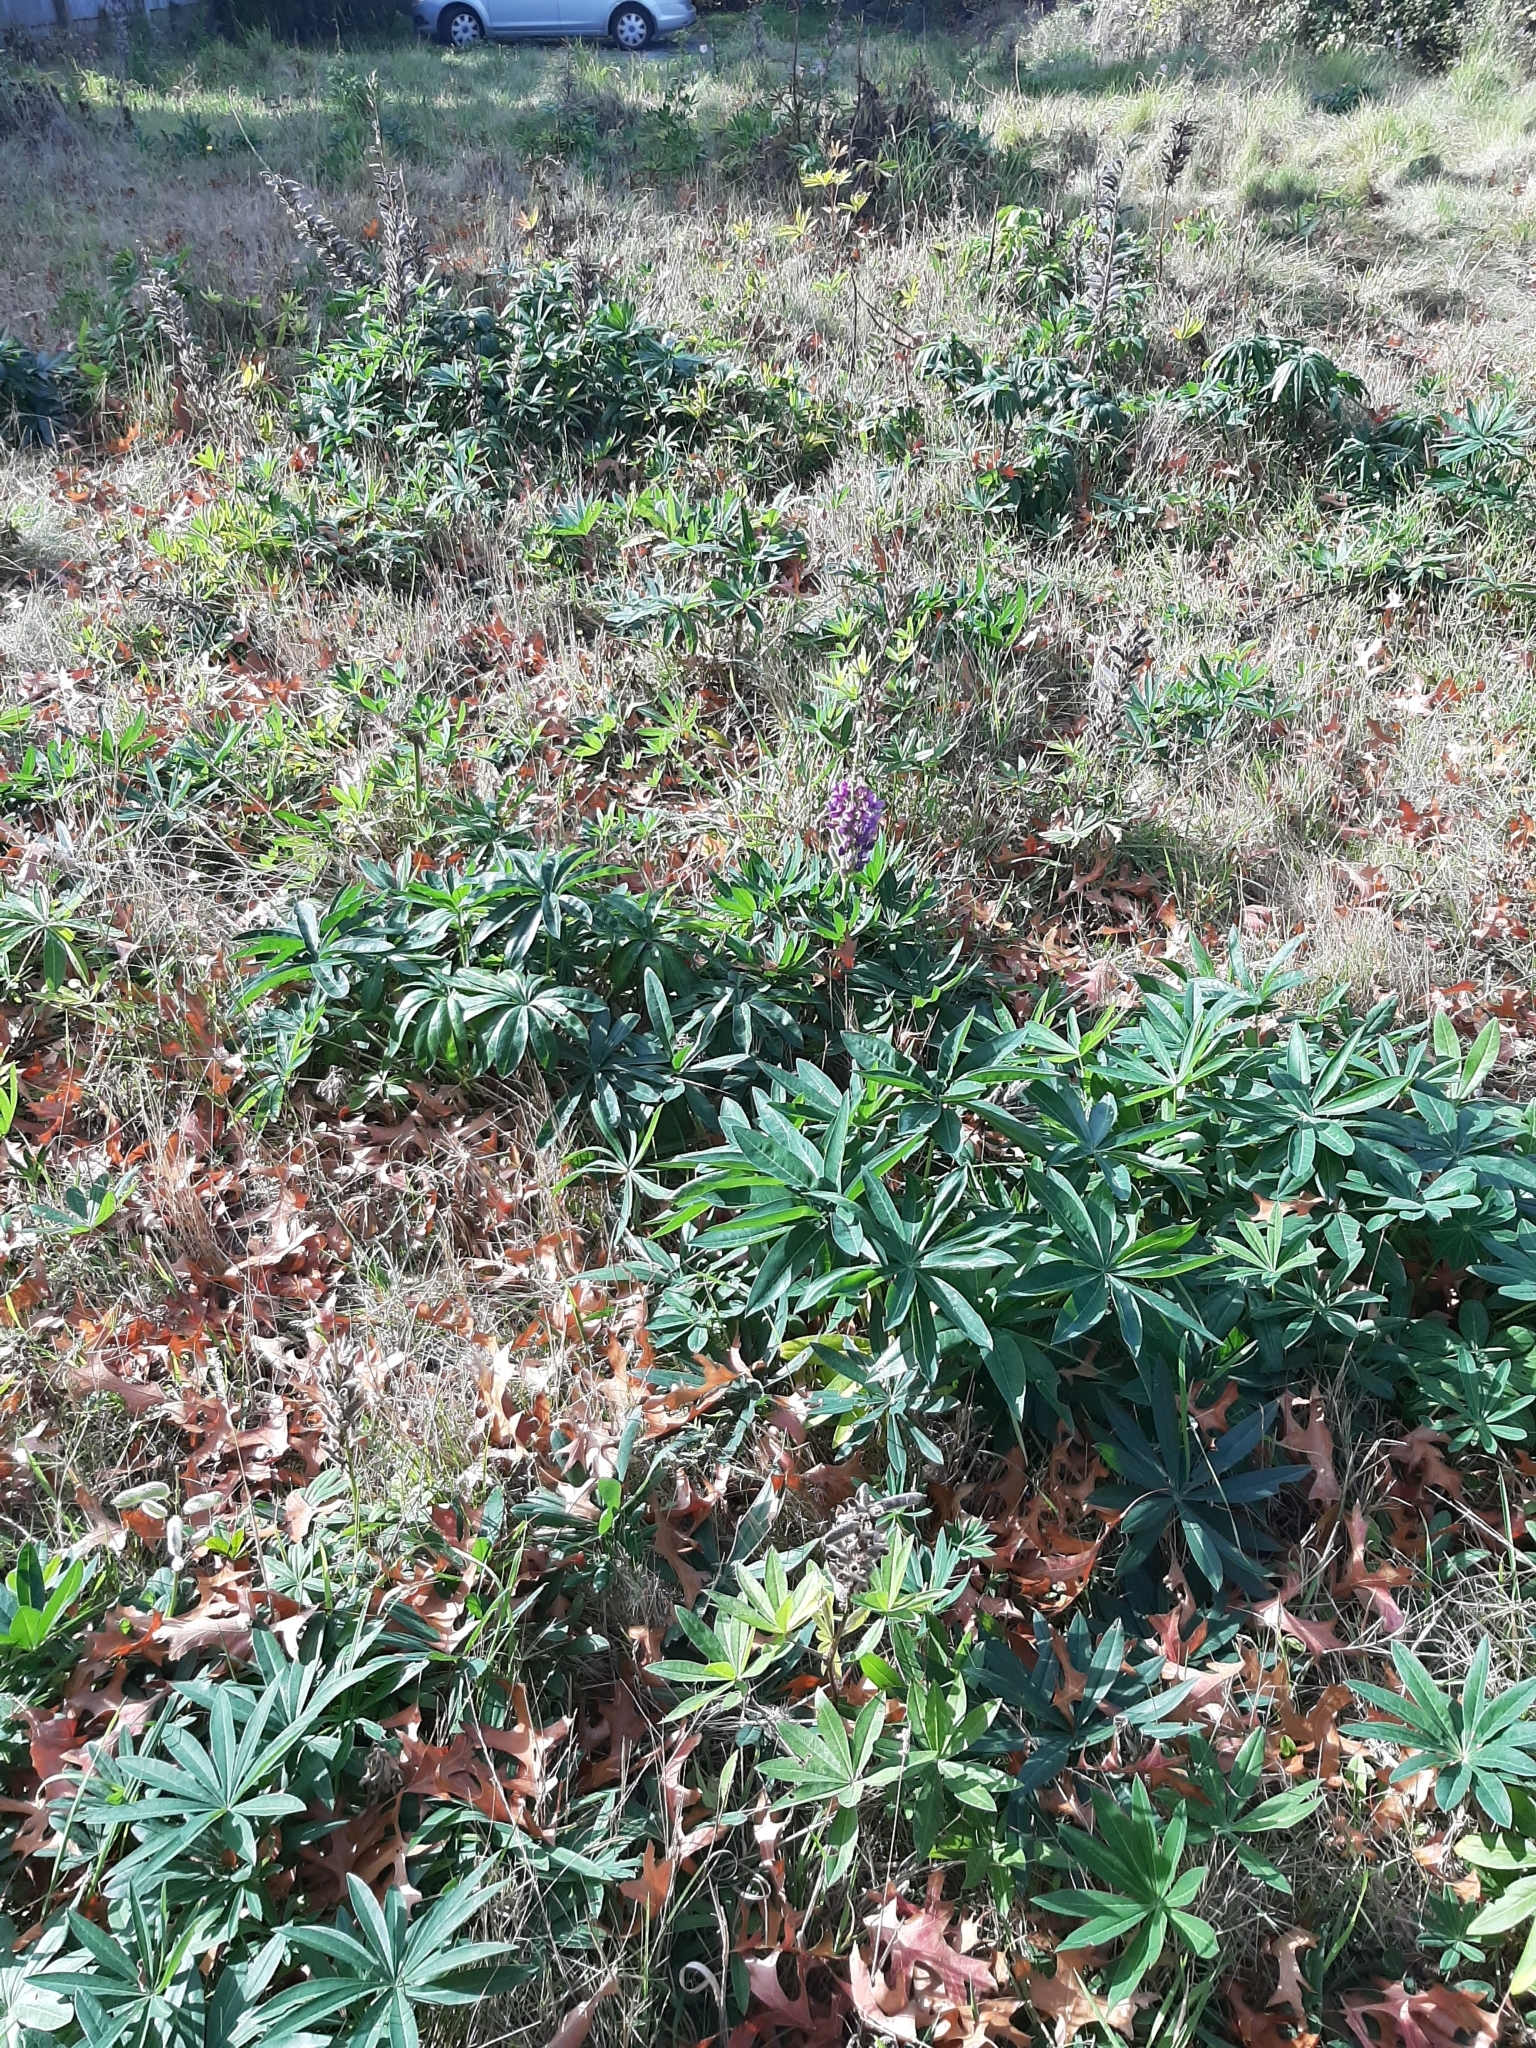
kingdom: Plantae
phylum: Tracheophyta
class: Magnoliopsida
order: Fabales
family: Fabaceae
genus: Lupinus
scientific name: Lupinus polyphyllus
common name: Garden lupin
